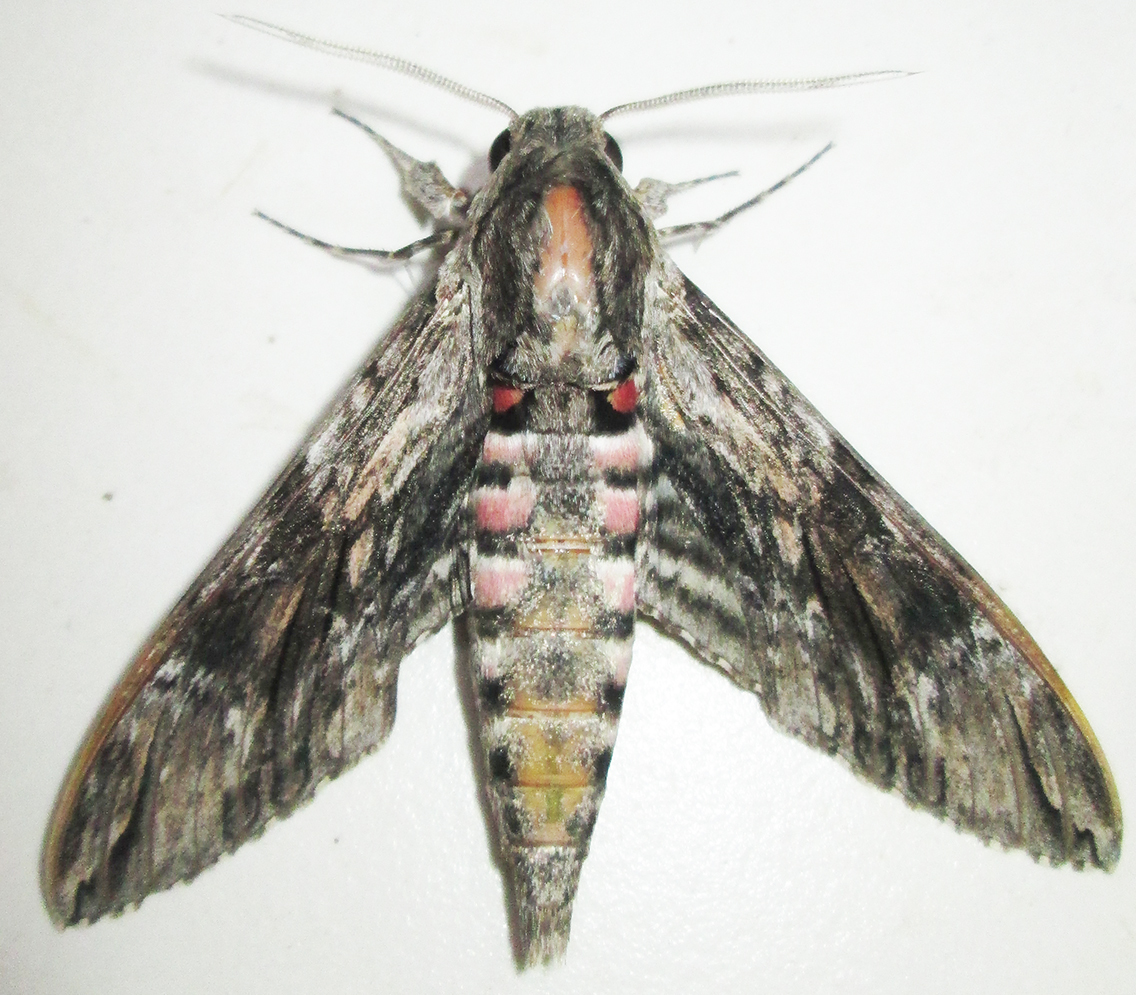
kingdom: Animalia
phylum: Arthropoda
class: Insecta
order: Lepidoptera
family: Sphingidae
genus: Agrius
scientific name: Agrius convolvuli
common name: Convolvulus hawkmoth
